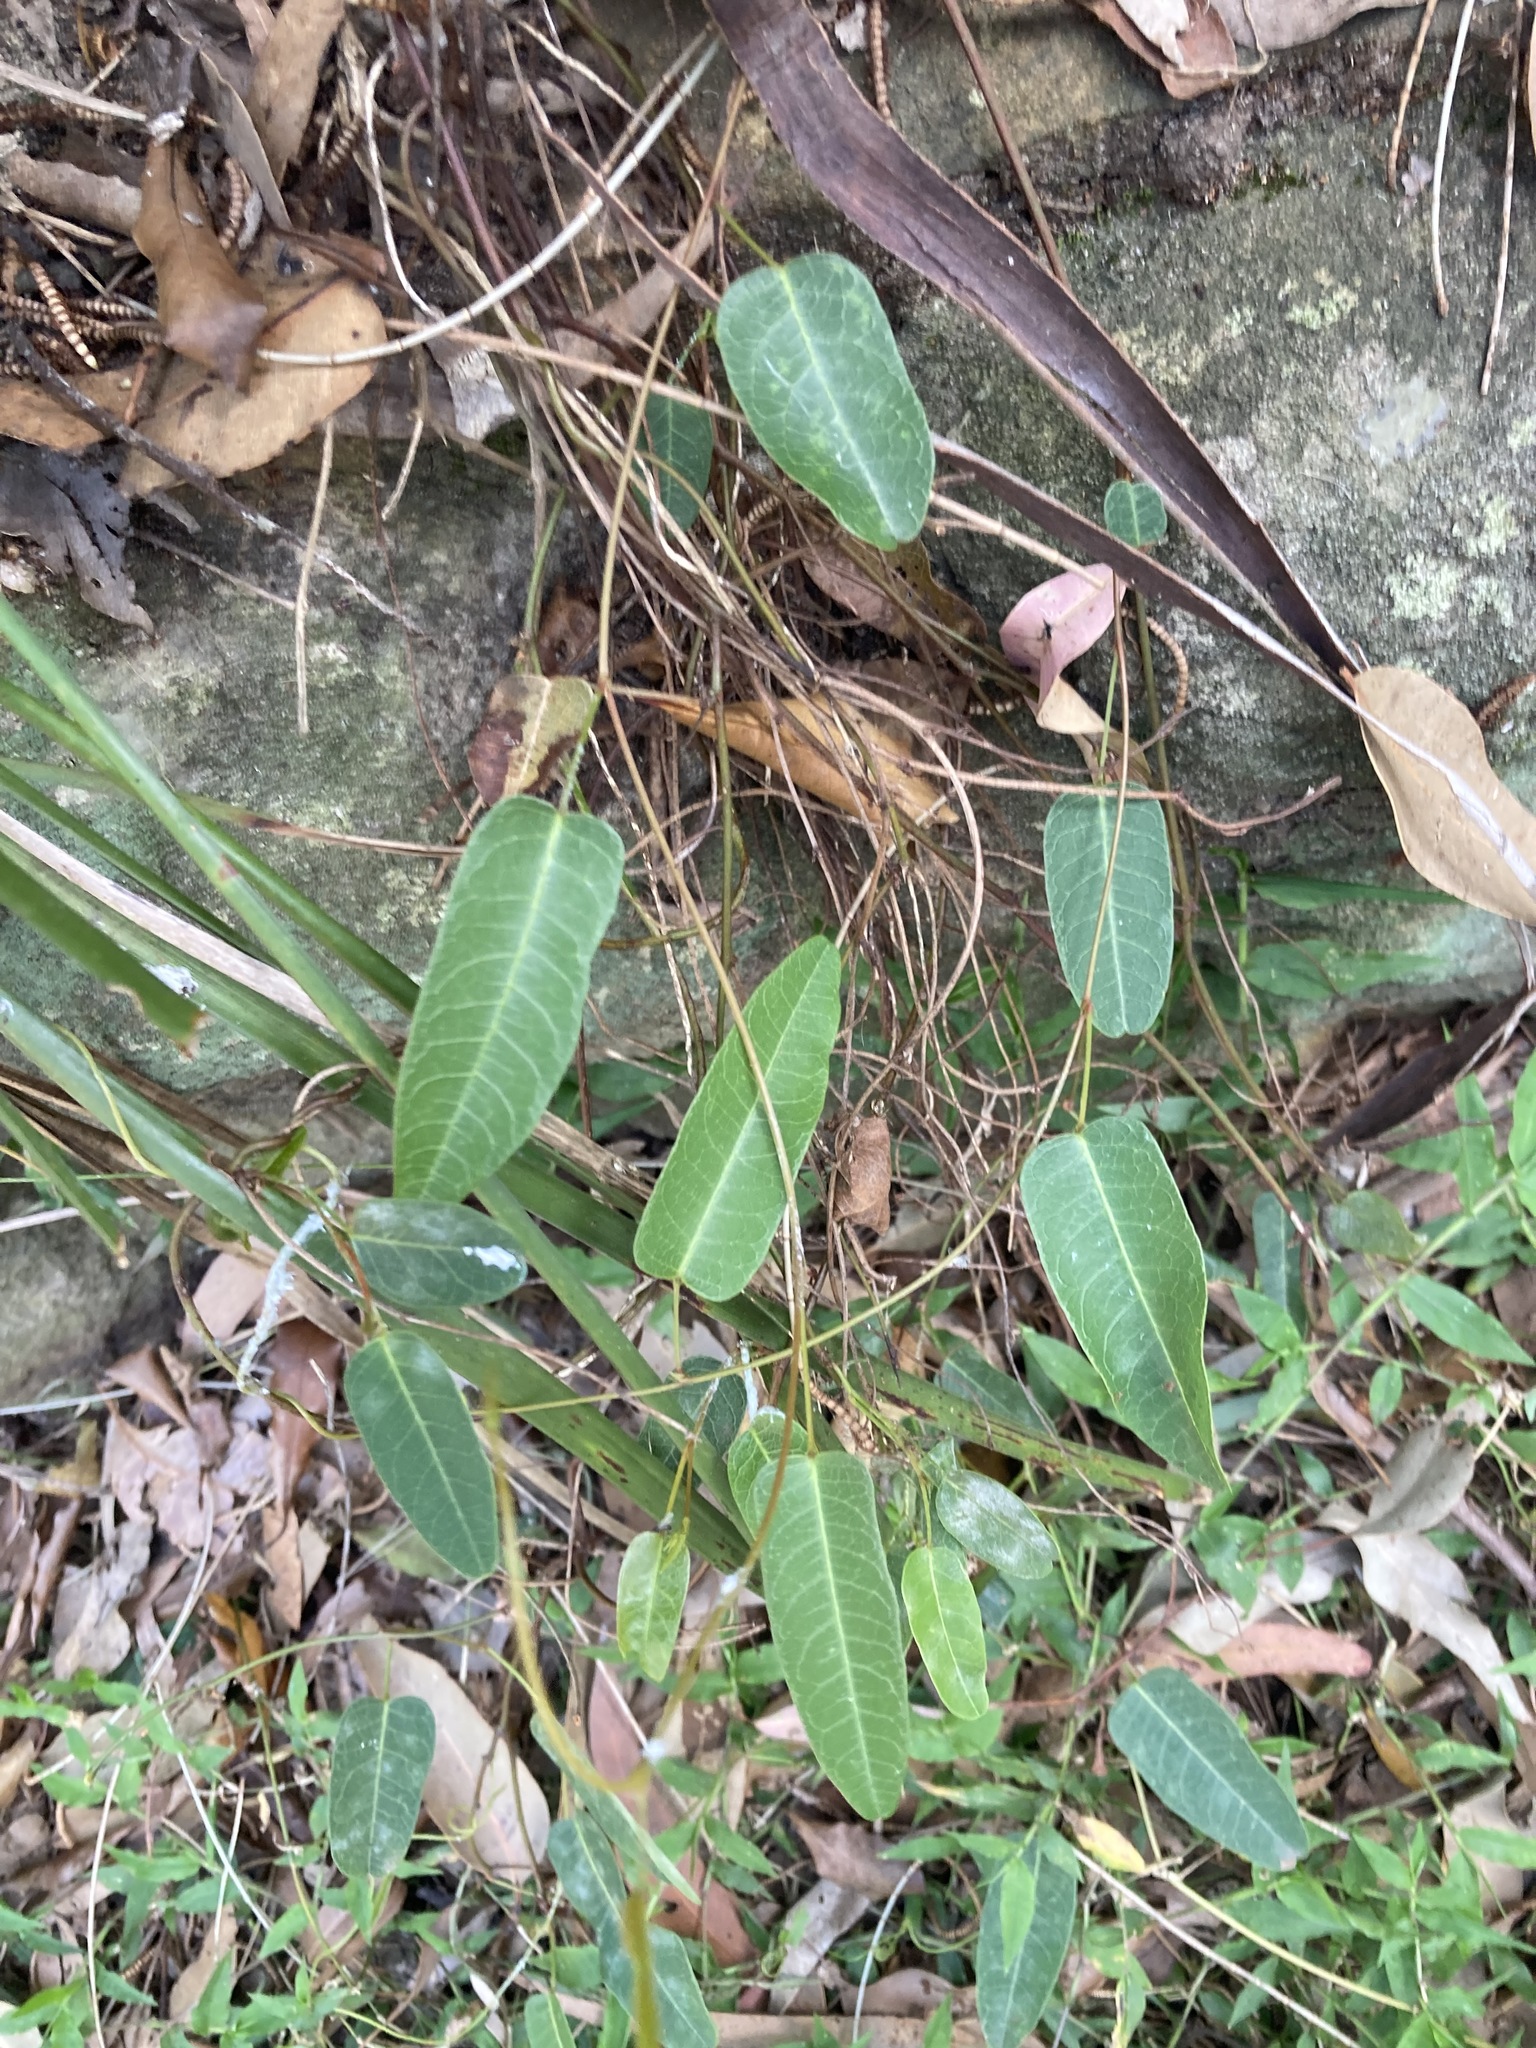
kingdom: Plantae
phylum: Tracheophyta
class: Magnoliopsida
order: Fabales
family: Fabaceae
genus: Hardenbergia
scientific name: Hardenbergia violacea
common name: Coral-pea
